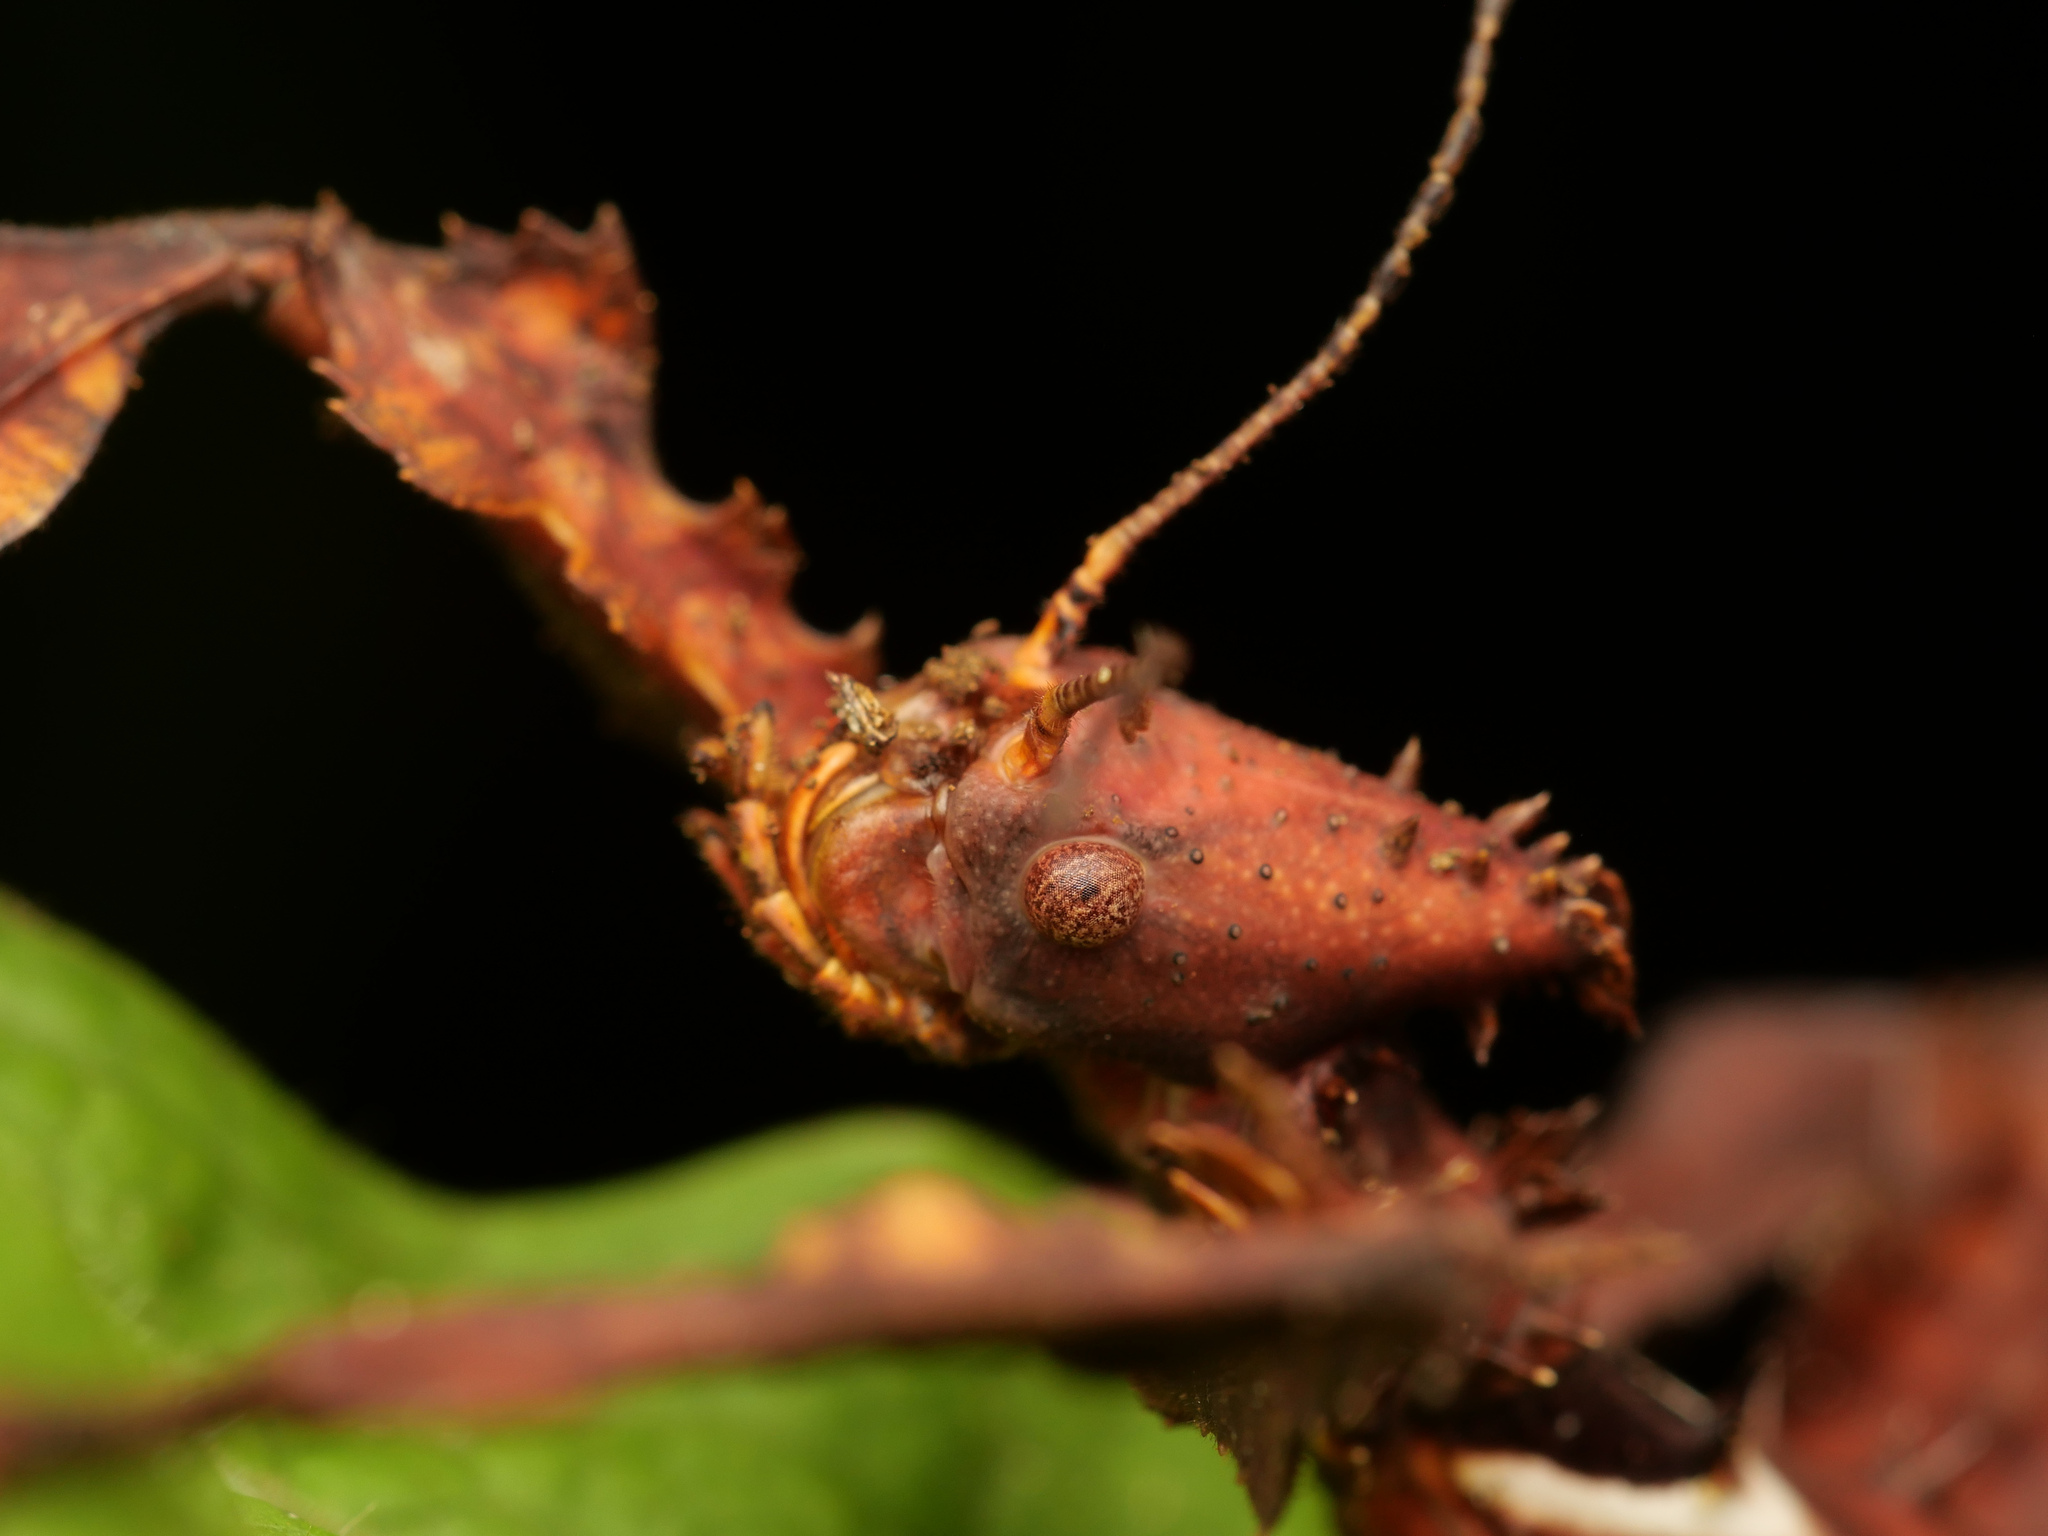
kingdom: Animalia
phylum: Arthropoda
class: Insecta
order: Phasmida
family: Phasmatidae
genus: Extatosoma
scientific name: Extatosoma popa
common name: Popa stick insect
